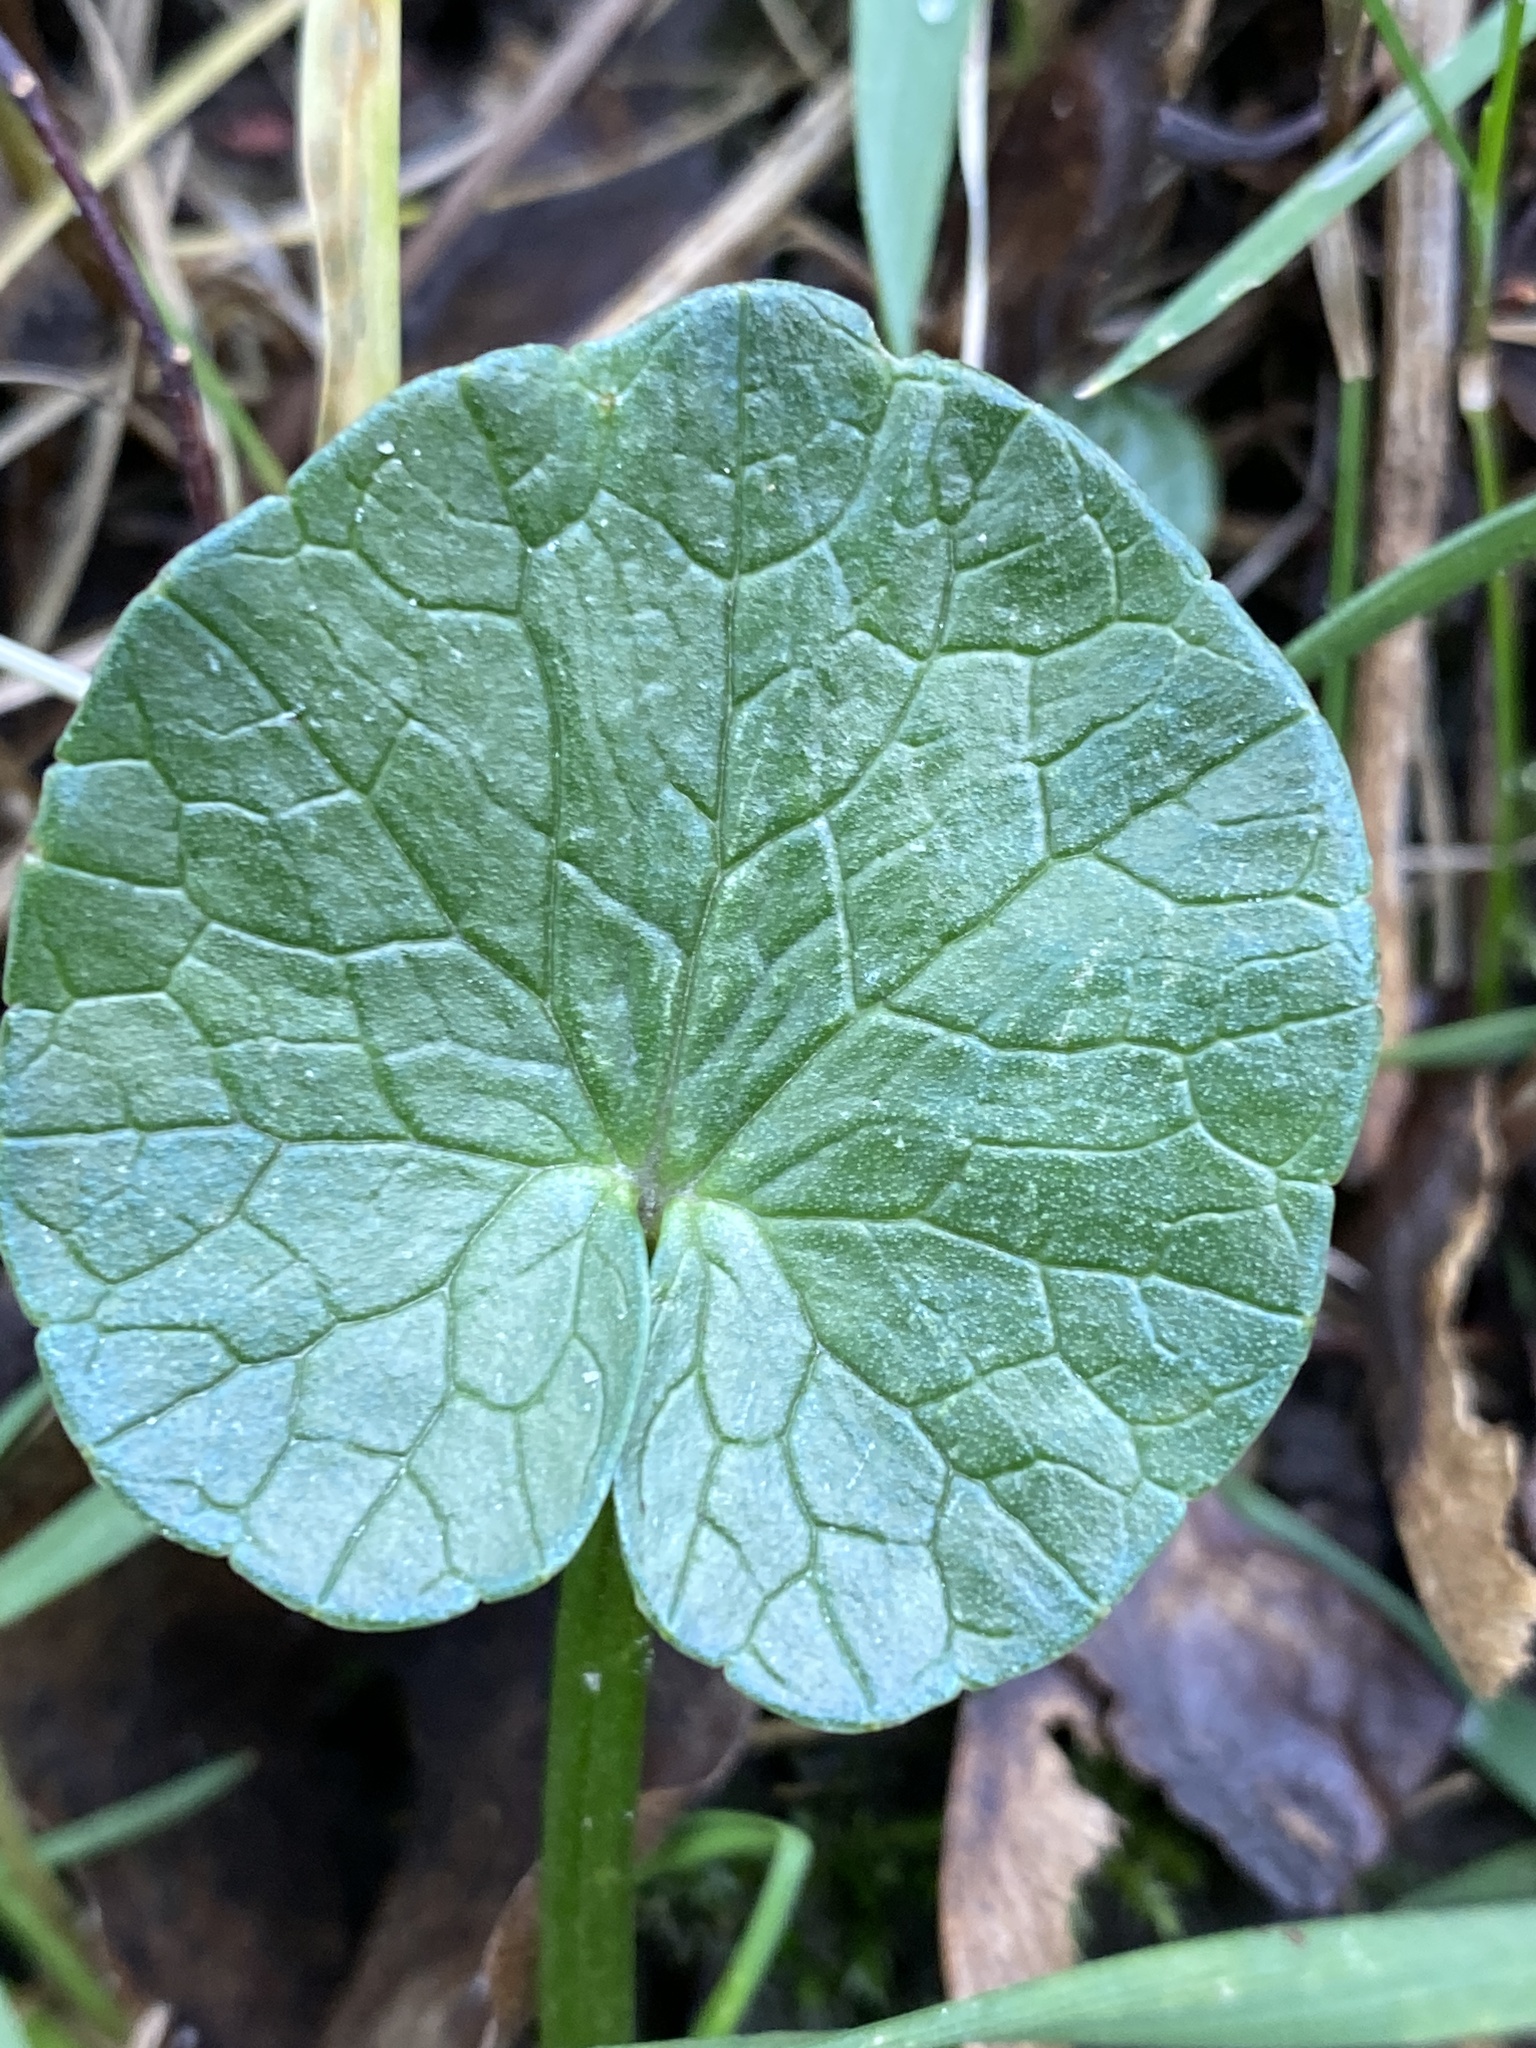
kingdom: Plantae
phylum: Tracheophyta
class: Magnoliopsida
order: Ranunculales
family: Ranunculaceae
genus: Ficaria
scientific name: Ficaria verna
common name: Lesser celandine
